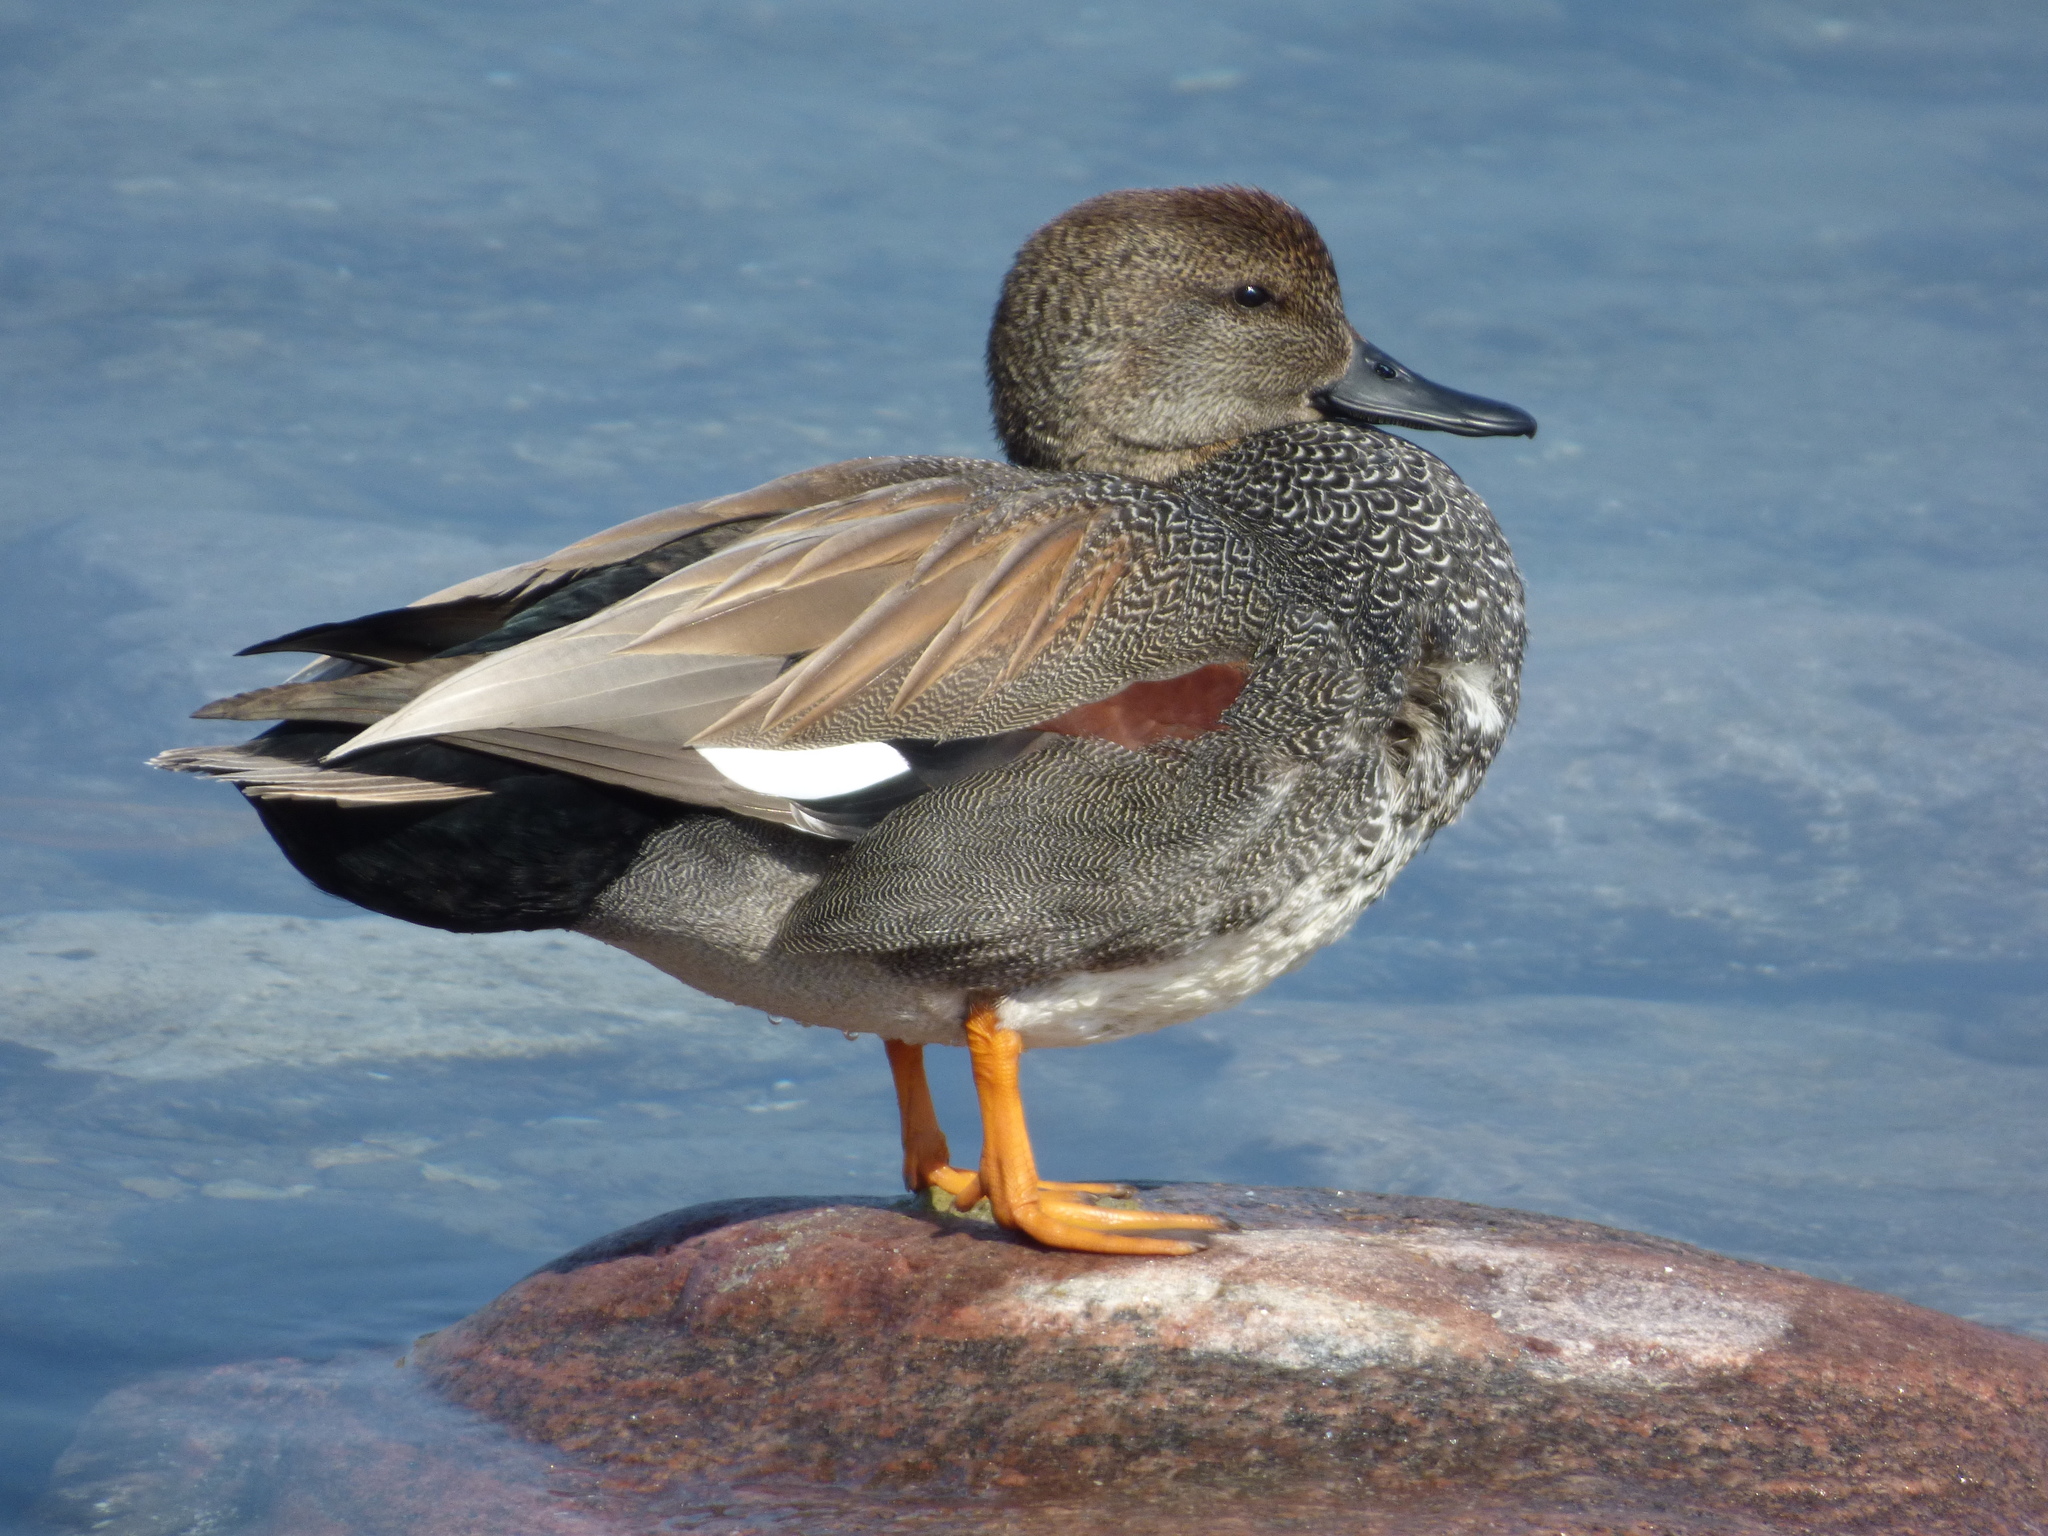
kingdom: Animalia
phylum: Chordata
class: Aves
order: Anseriformes
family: Anatidae
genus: Mareca
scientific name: Mareca strepera
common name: Gadwall
